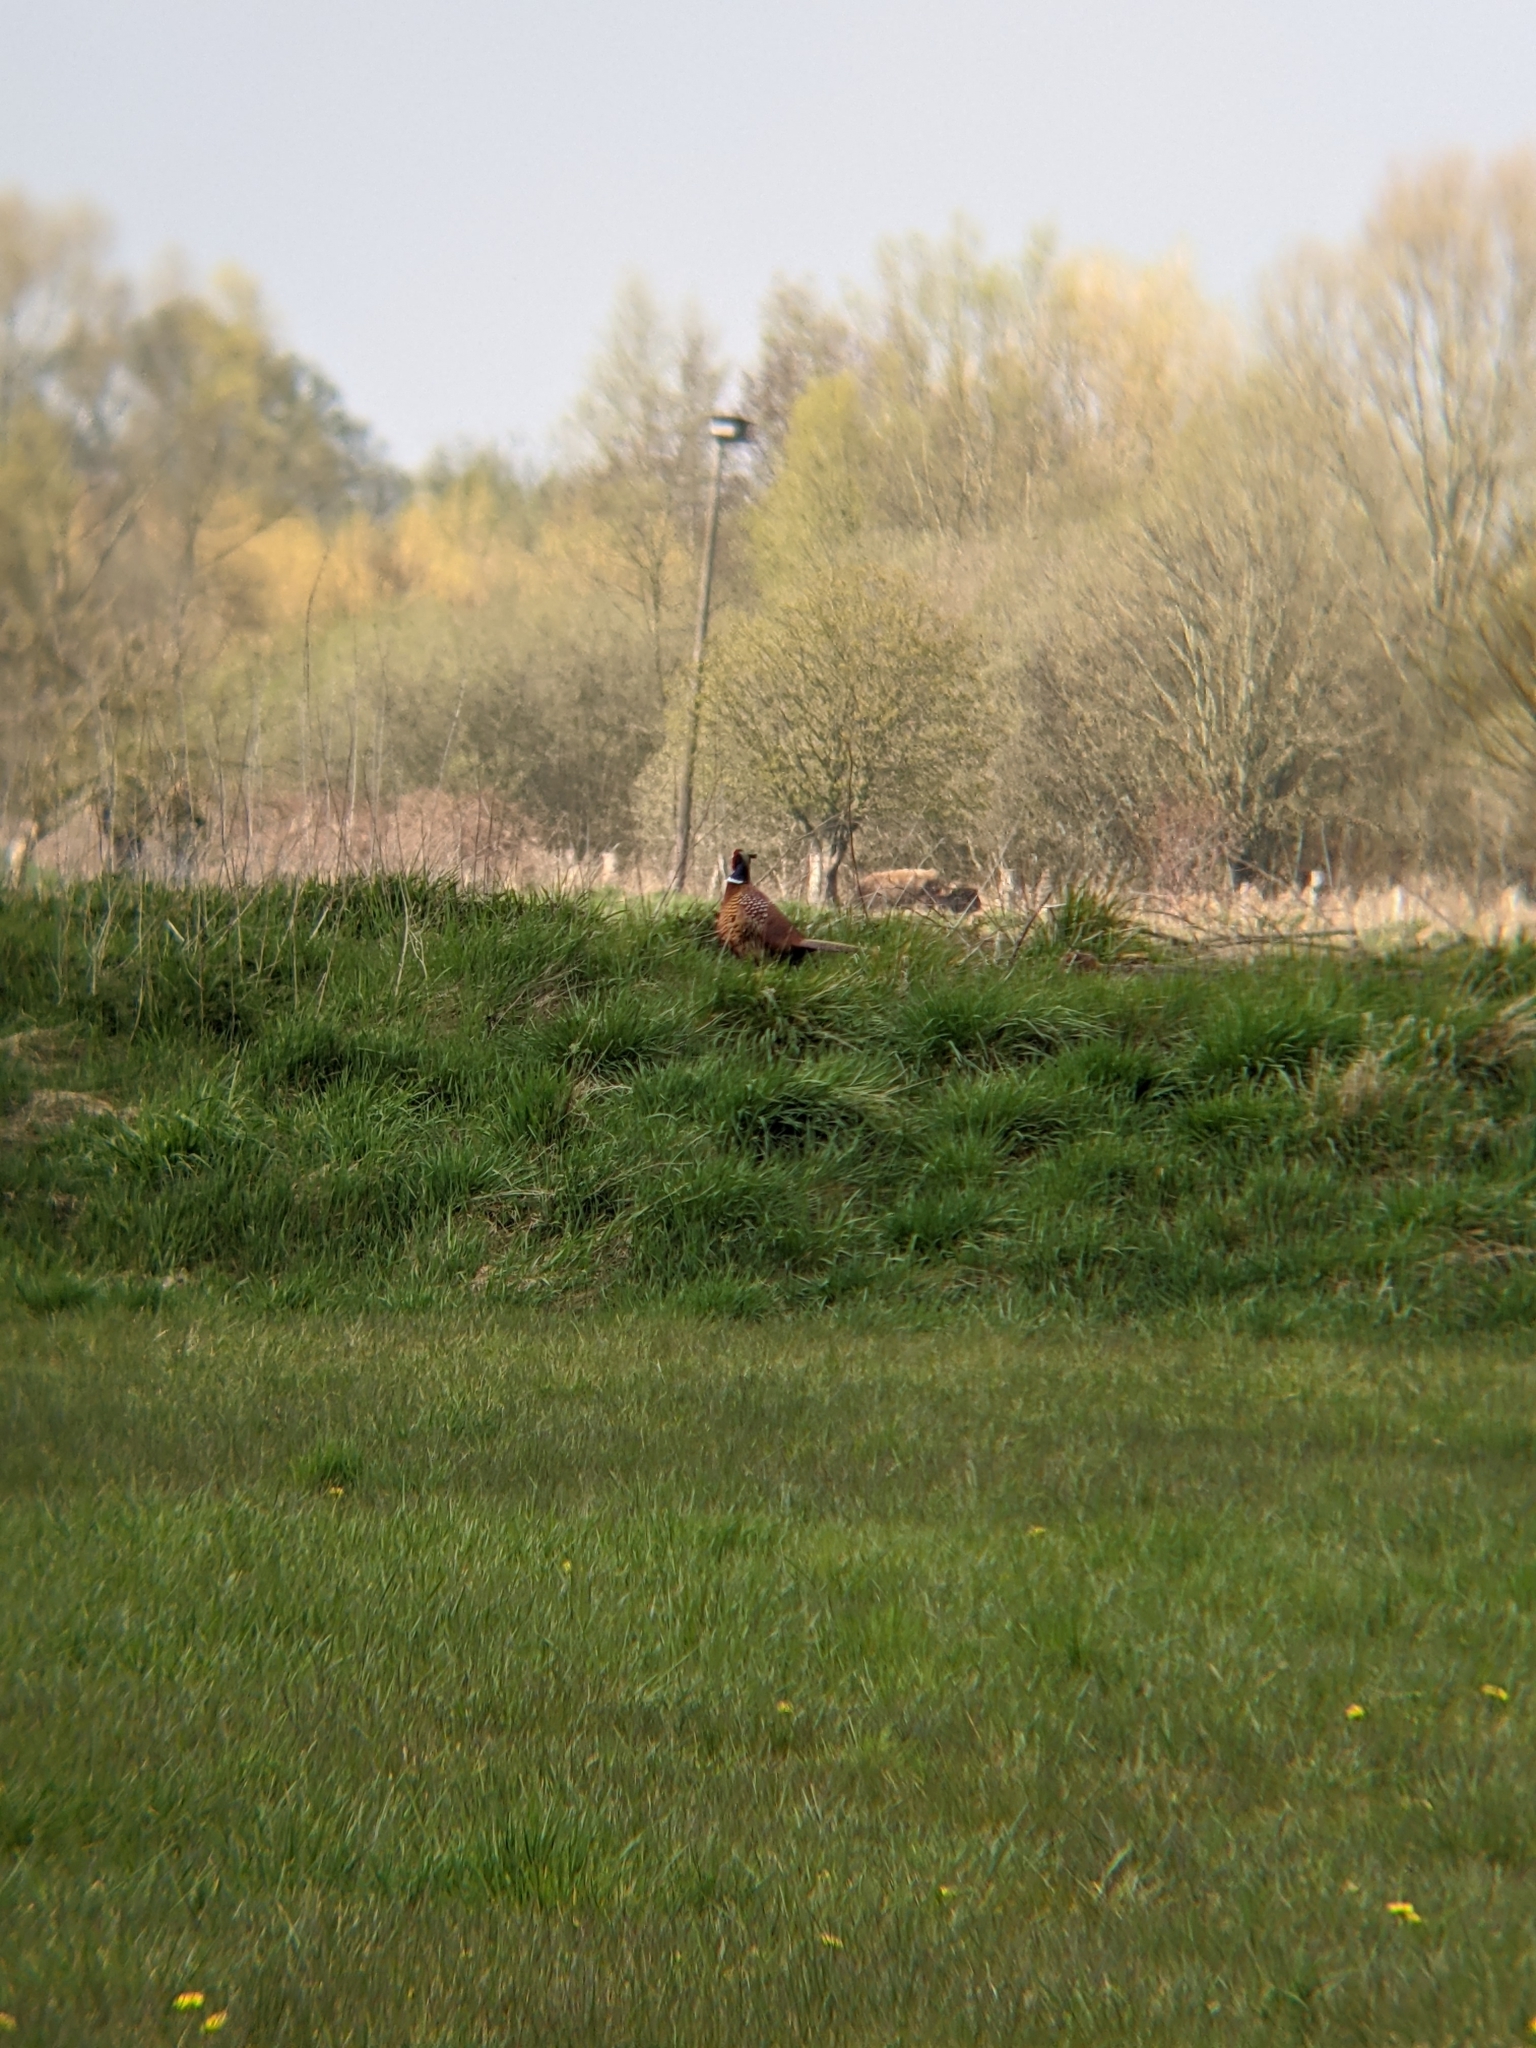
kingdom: Animalia
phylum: Chordata
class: Aves
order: Galliformes
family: Phasianidae
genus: Phasianus
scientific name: Phasianus colchicus
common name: Common pheasant
